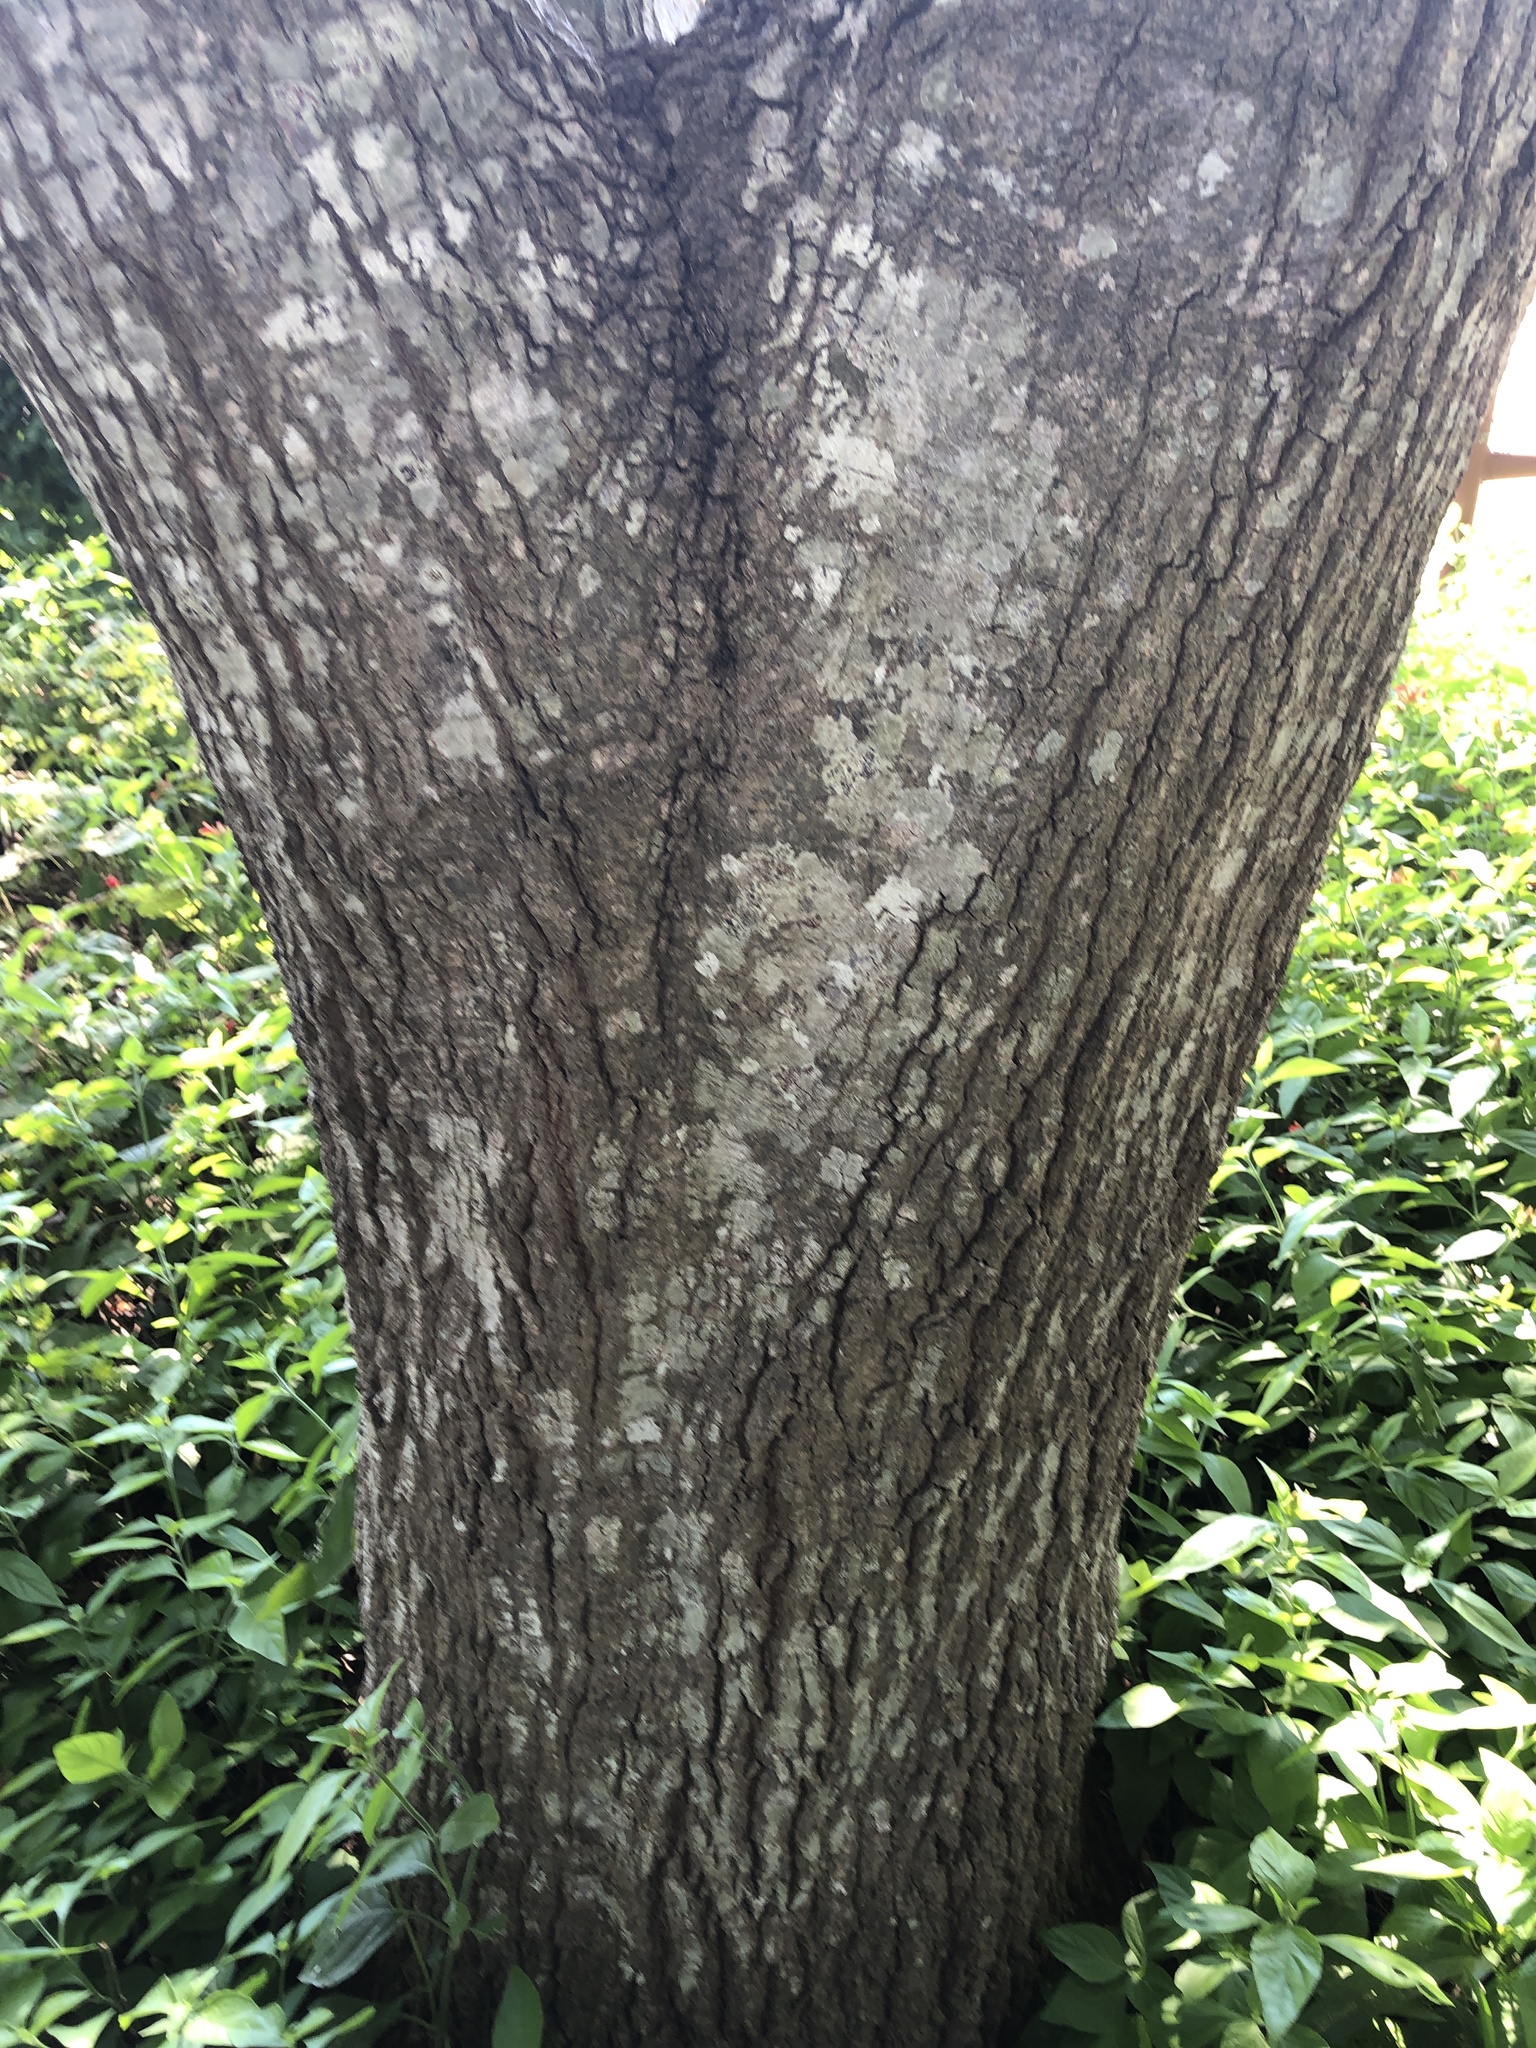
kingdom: Plantae
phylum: Tracheophyta
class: Magnoliopsida
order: Fagales
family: Fagaceae
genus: Quercus
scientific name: Quercus shumardii
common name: Shumard oak
